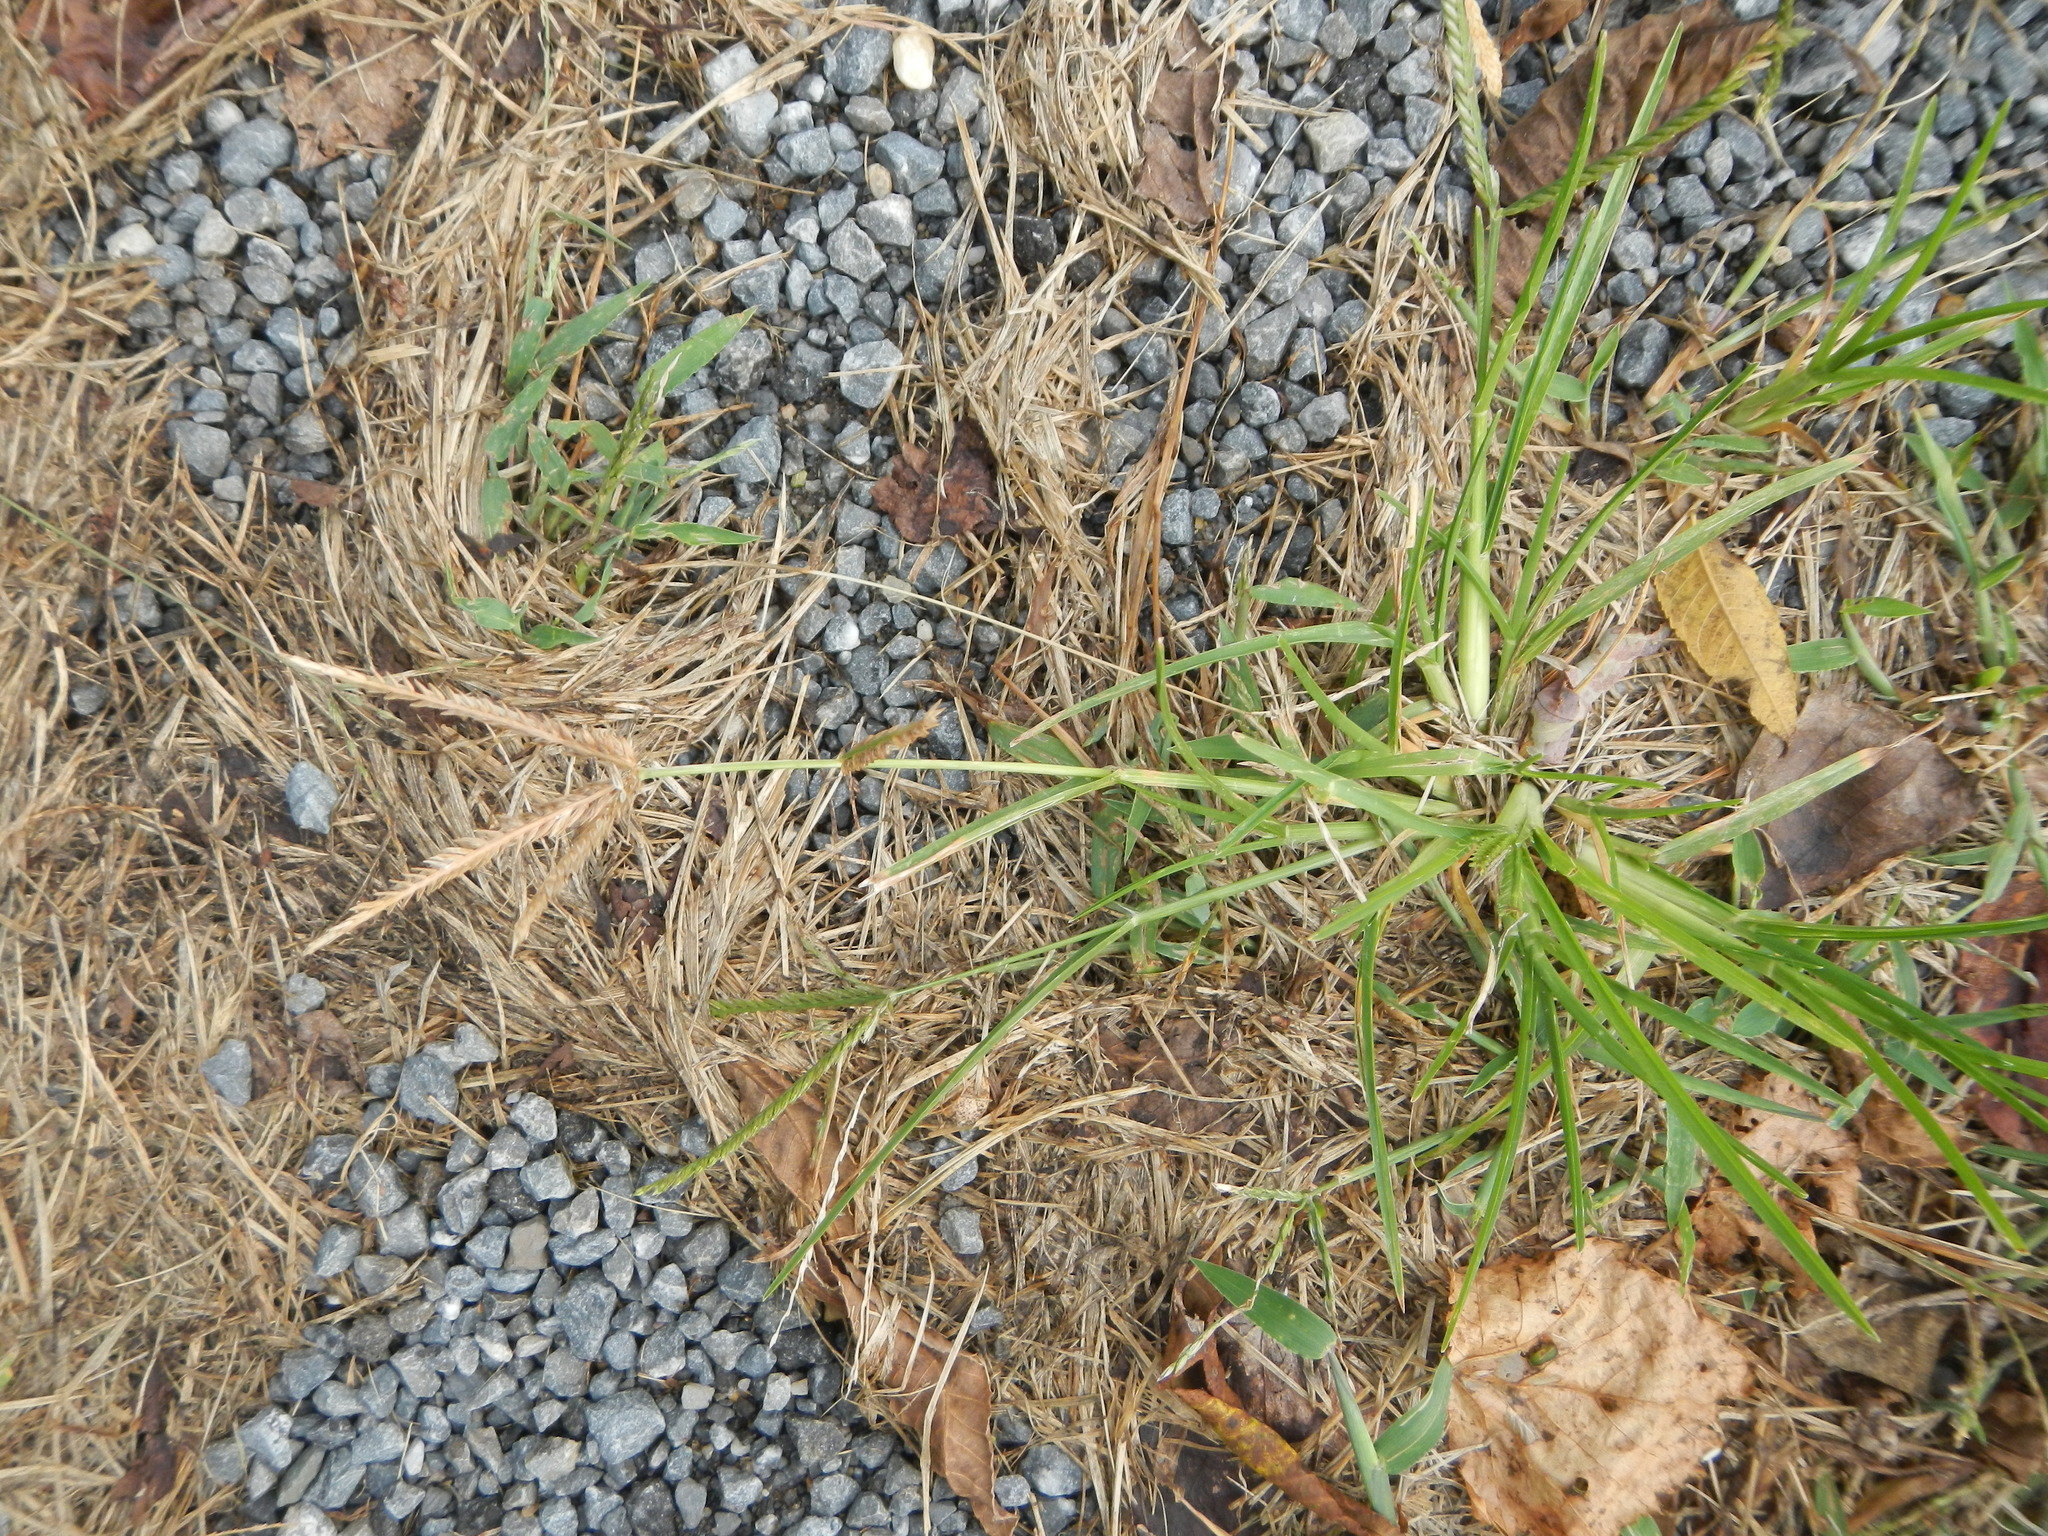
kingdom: Plantae
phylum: Tracheophyta
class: Liliopsida
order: Poales
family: Poaceae
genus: Eleusine
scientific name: Eleusine indica
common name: Yard-grass
